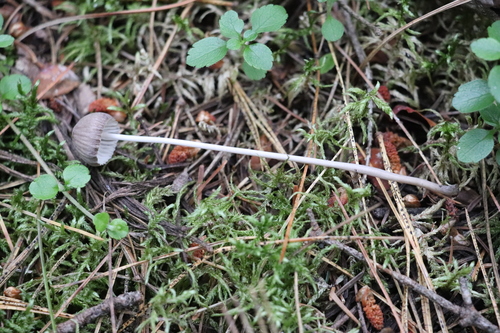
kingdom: Fungi
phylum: Basidiomycota
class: Agaricomycetes
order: Agaricales
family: Mycenaceae
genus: Mycena
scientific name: Mycena polygramma
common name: Grooved bonnet
